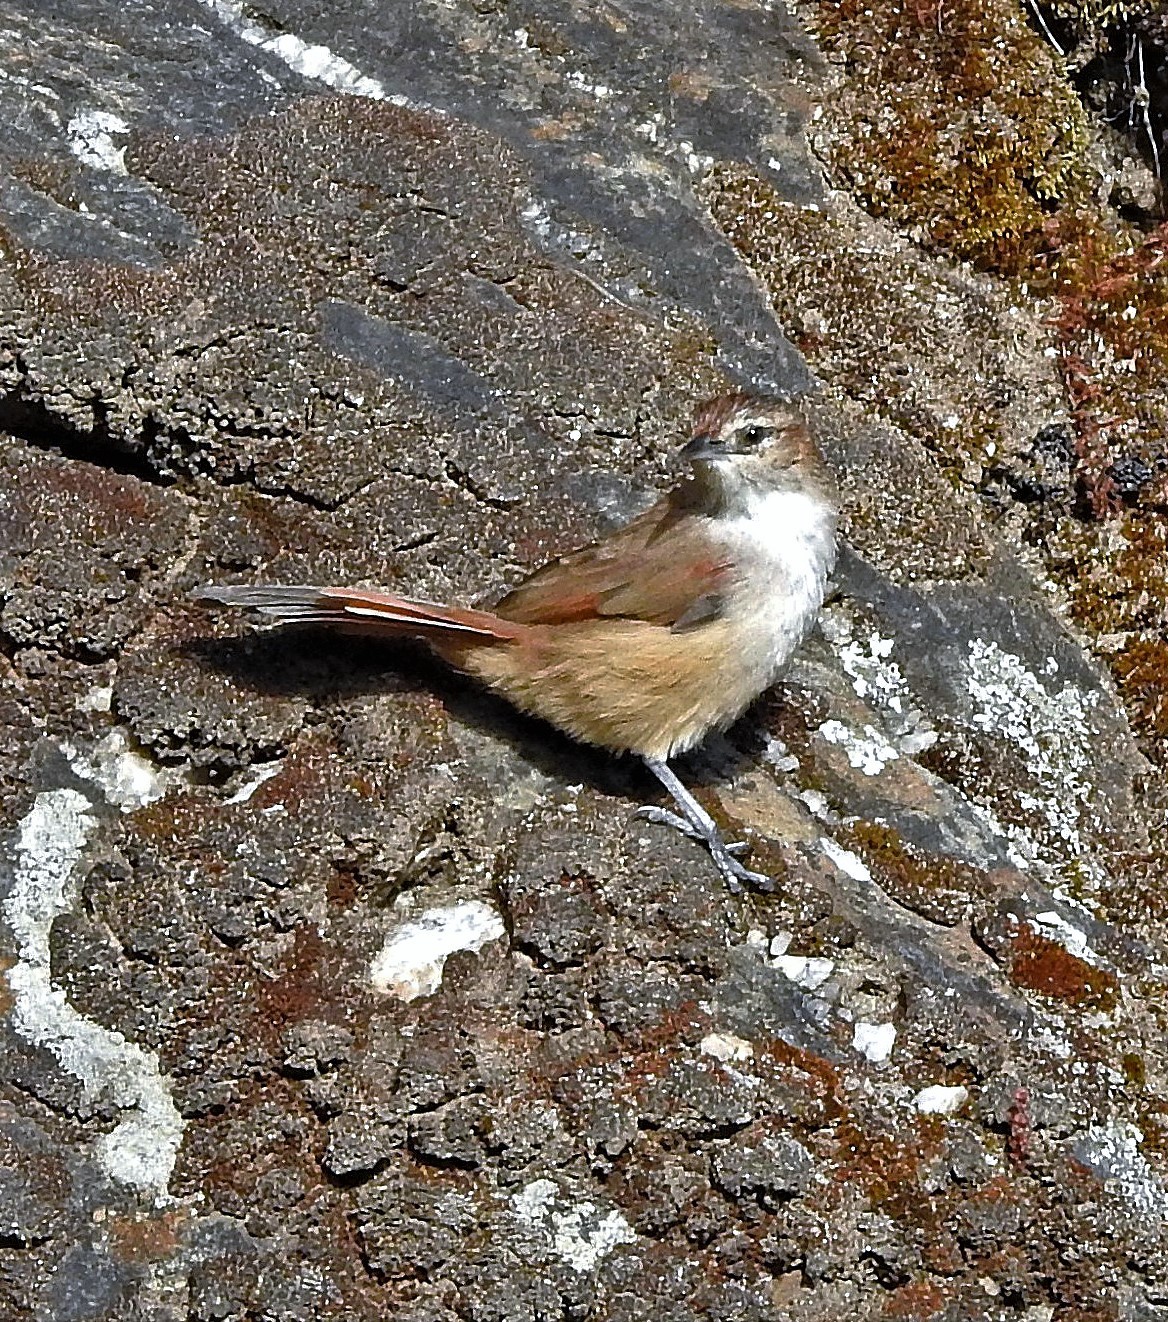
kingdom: Animalia
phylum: Chordata
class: Aves
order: Passeriformes
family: Furnariidae
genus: Phacellodomus
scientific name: Phacellodomus striaticeps
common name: Streak-fronted thornbird
